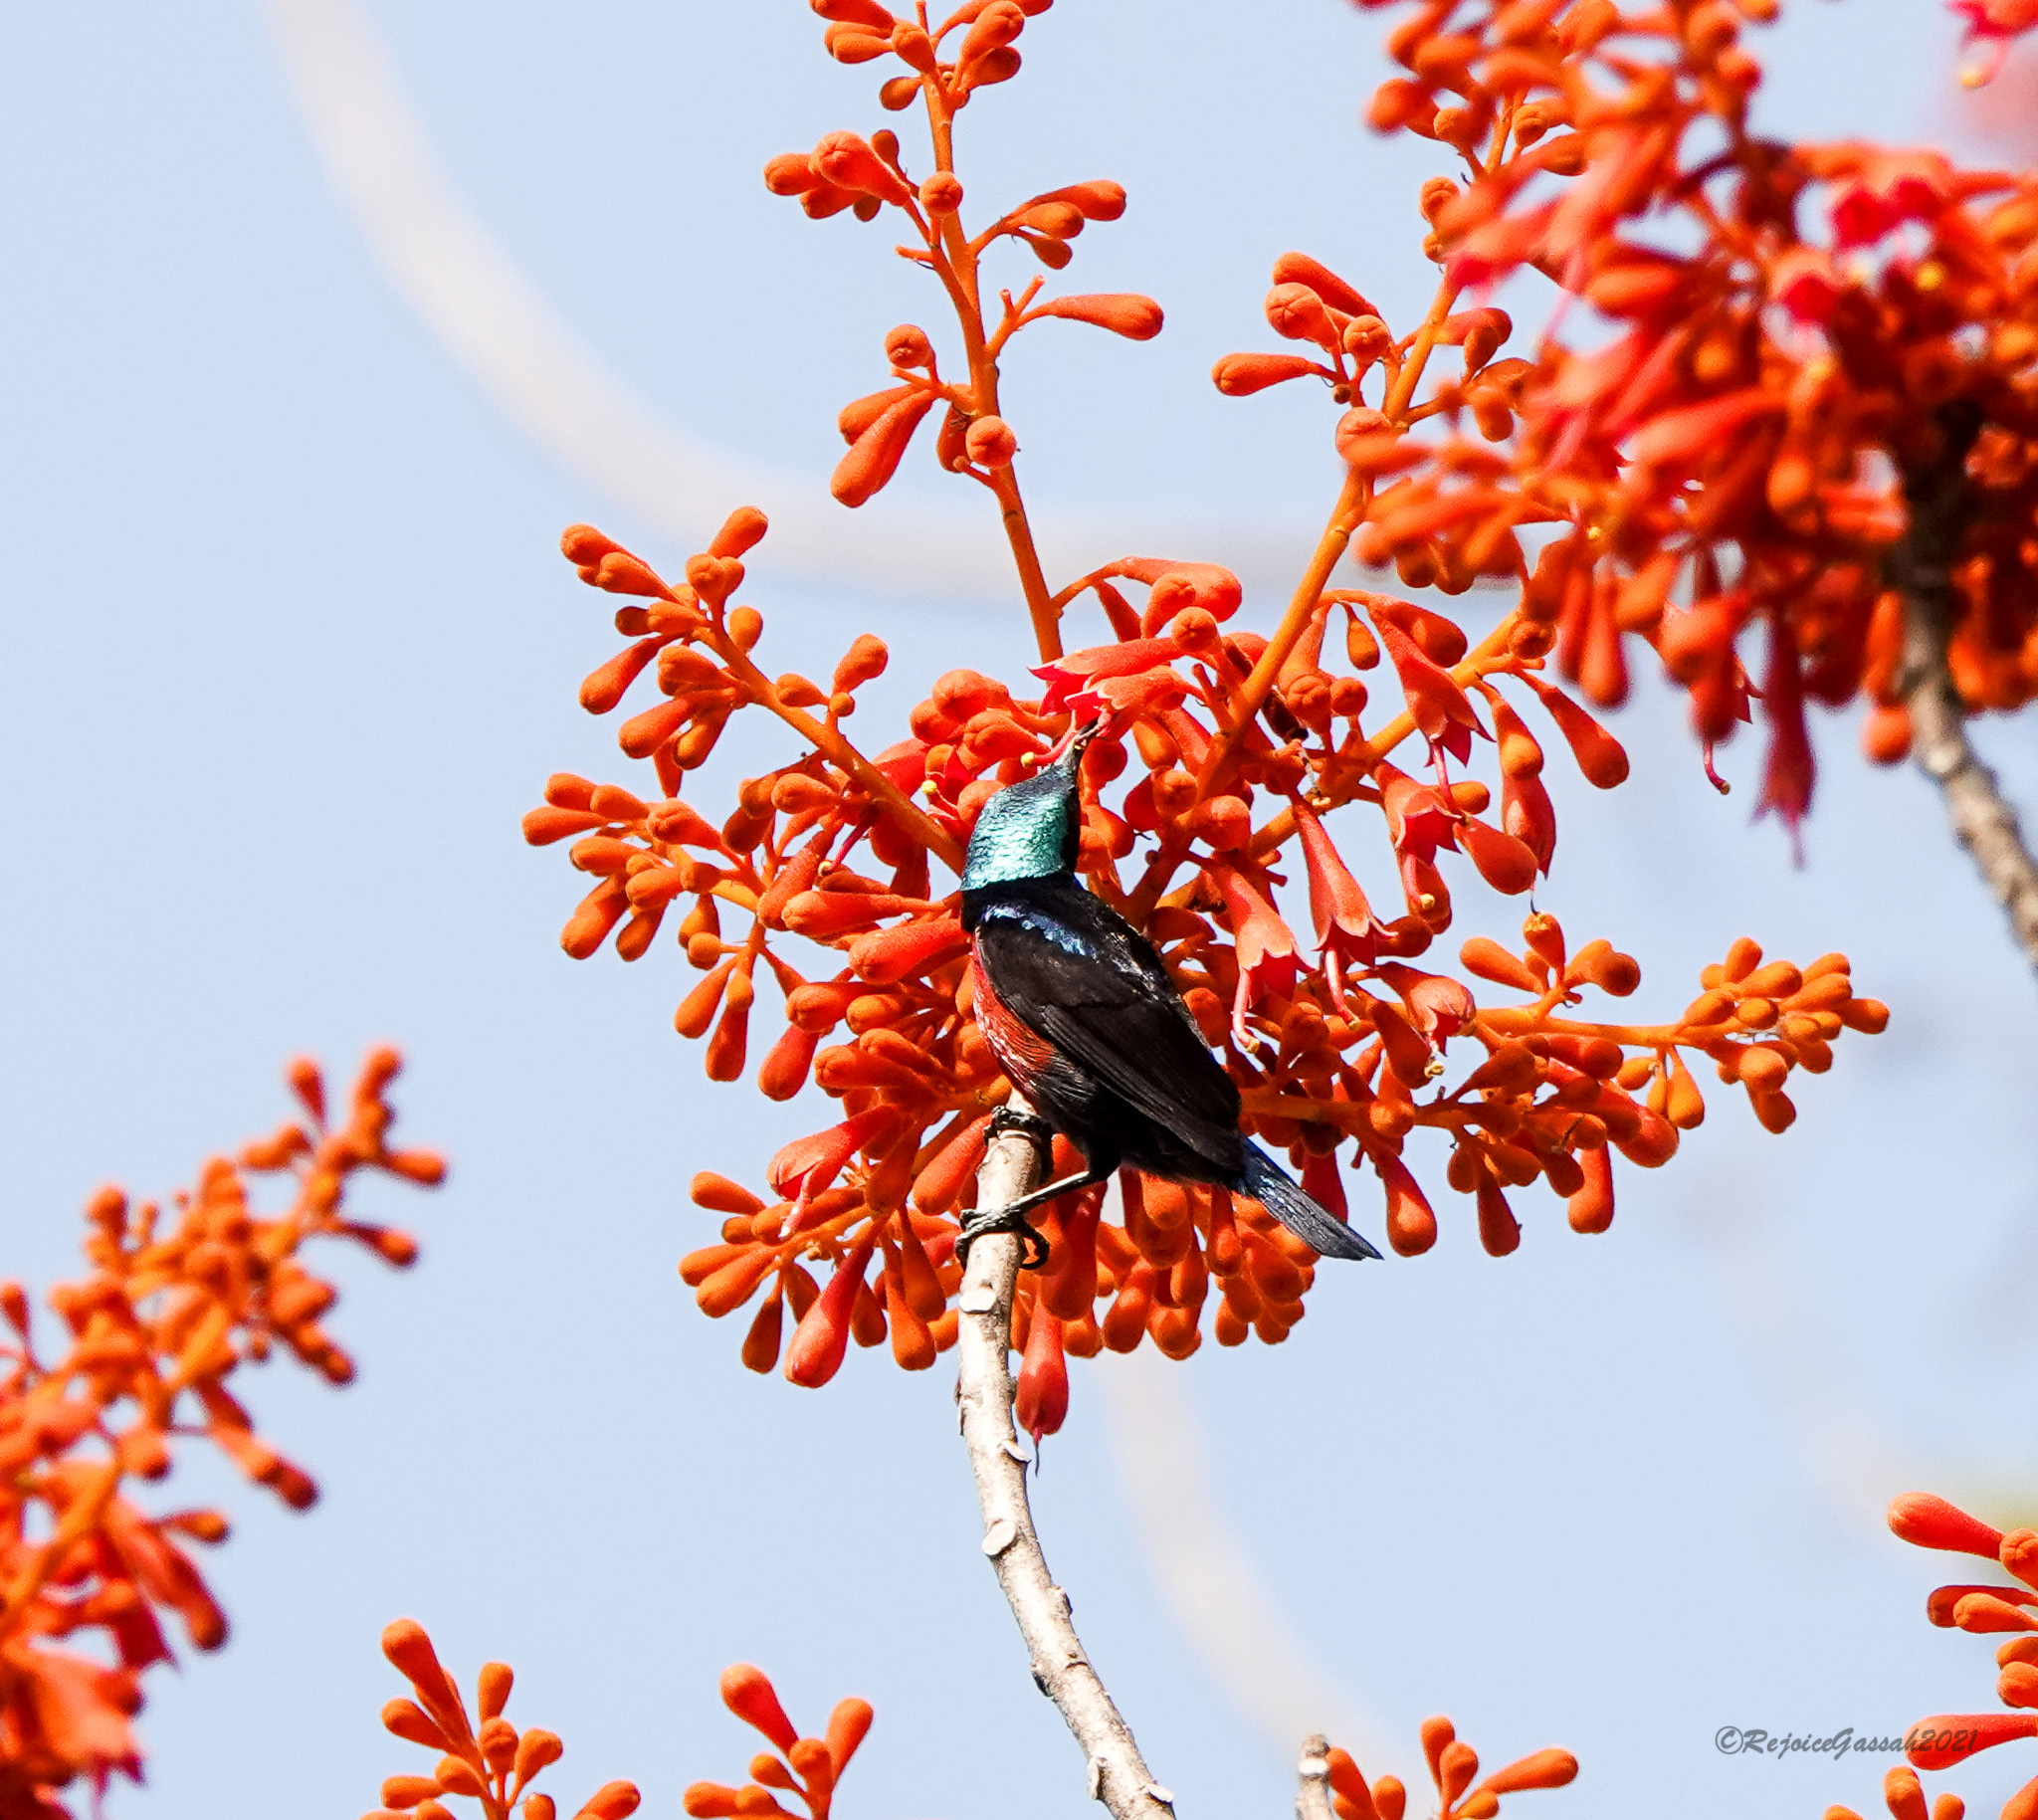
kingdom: Animalia
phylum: Chordata
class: Aves
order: Passeriformes
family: Nectariniidae
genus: Leptocoma
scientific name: Leptocoma brasiliana
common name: Van hasselt's sunbird
